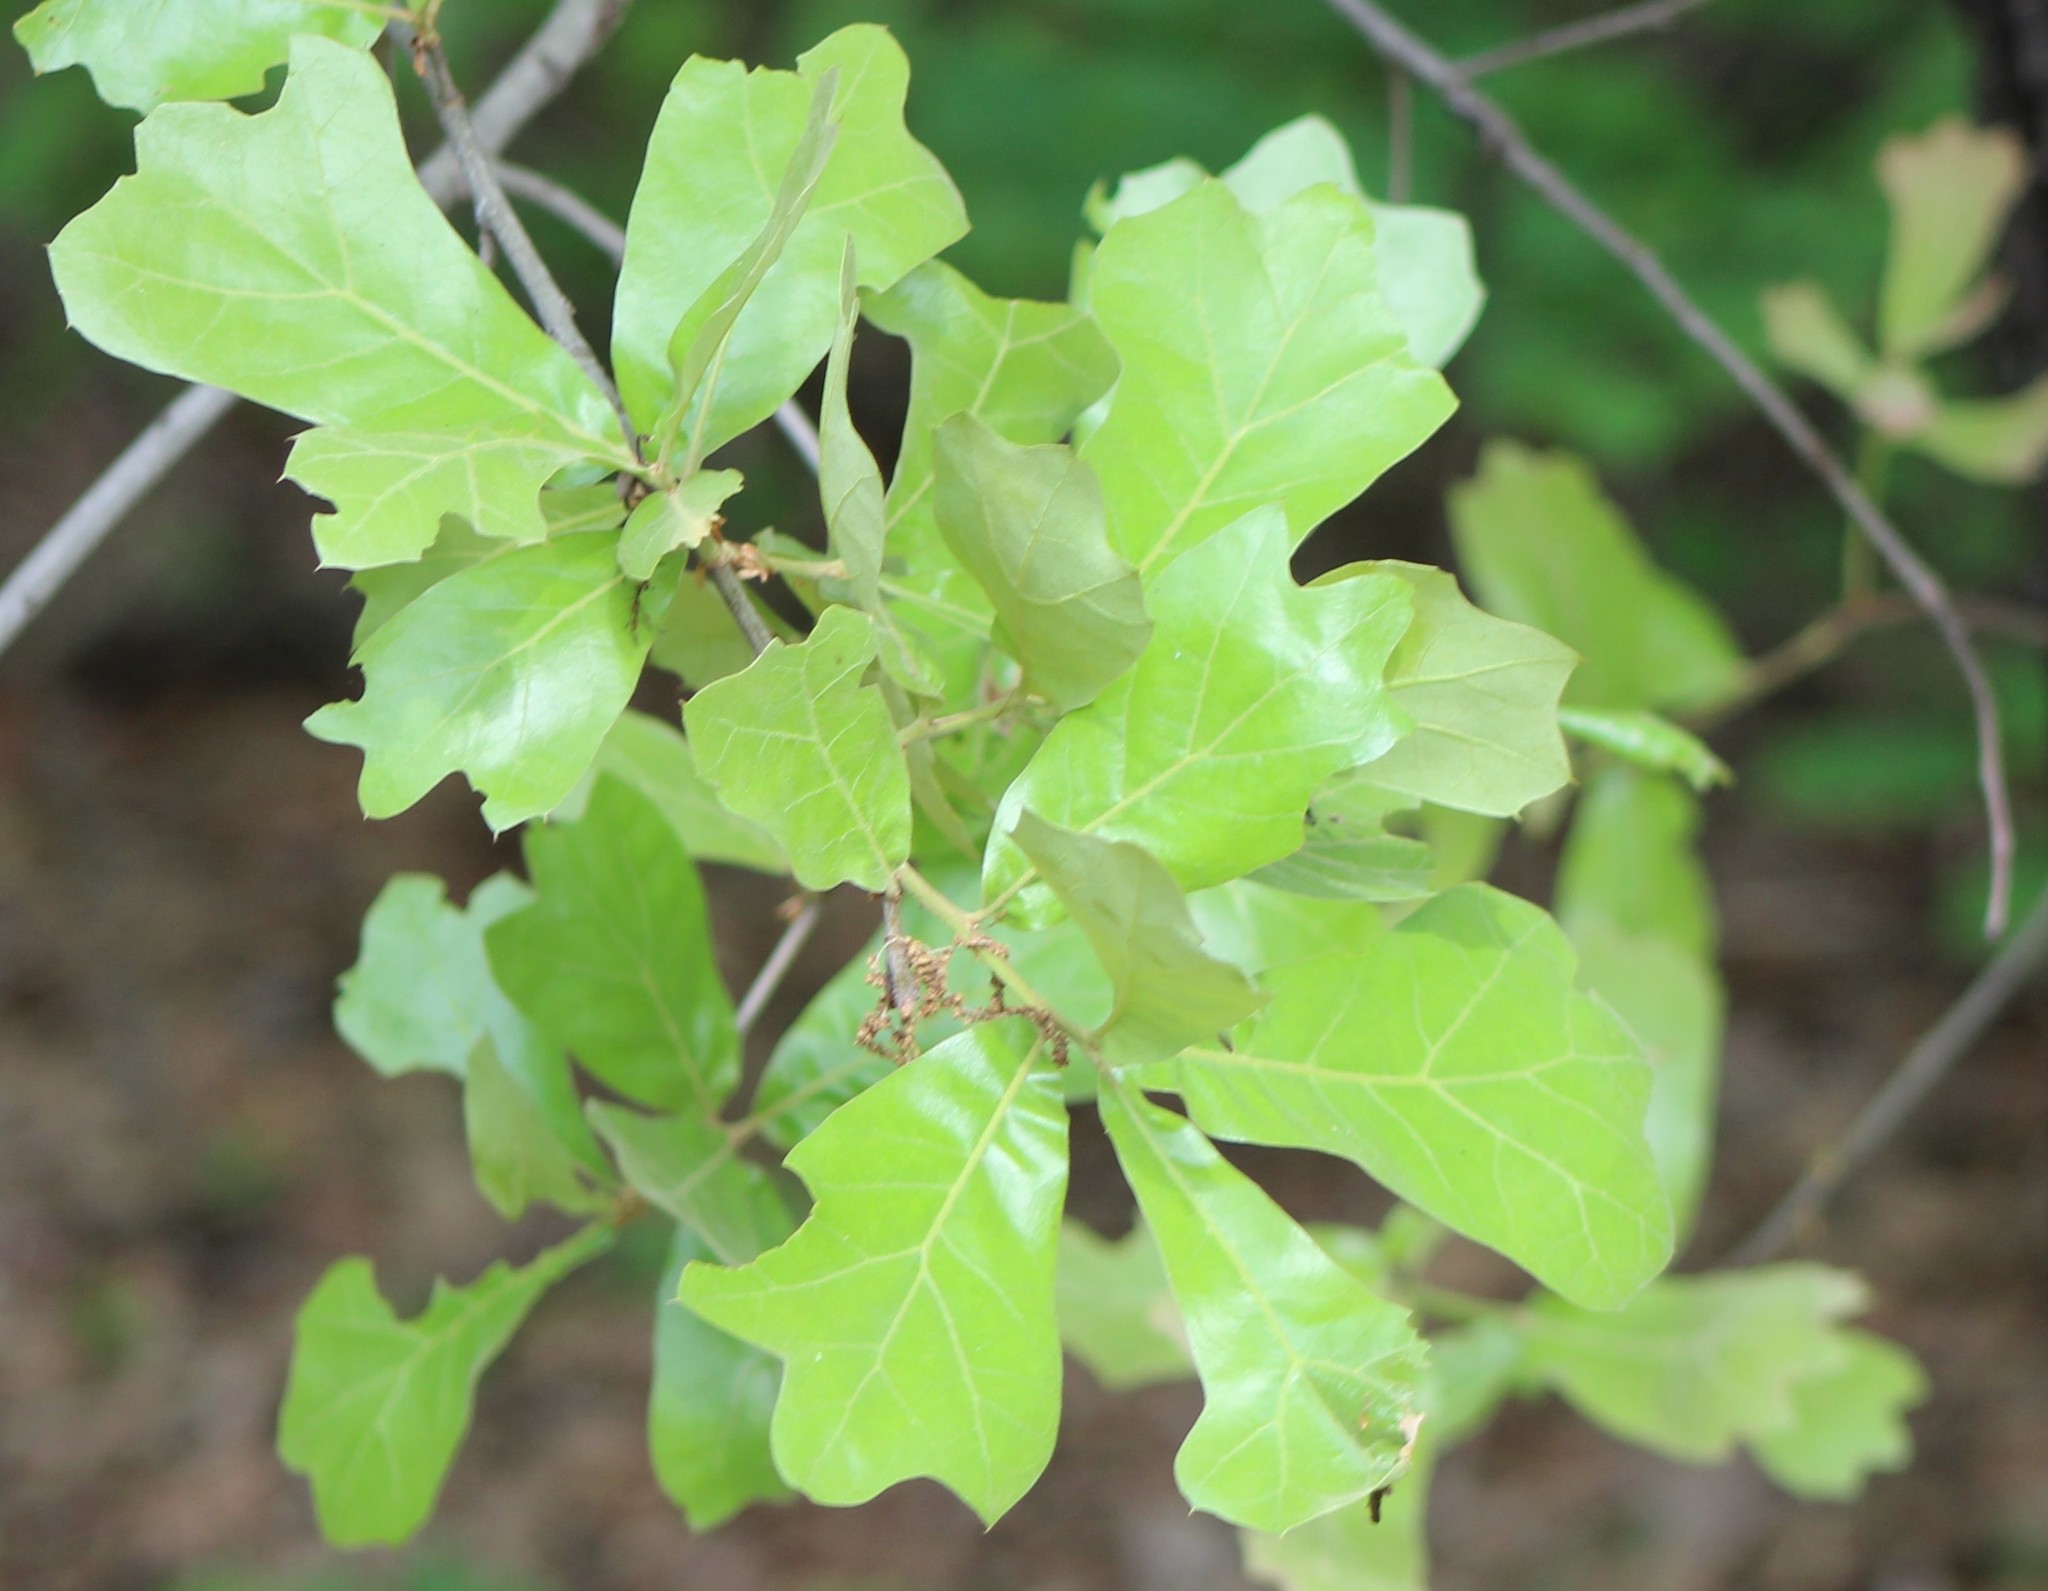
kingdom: Plantae
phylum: Tracheophyta
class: Magnoliopsida
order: Fagales
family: Fagaceae
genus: Quercus
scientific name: Quercus marilandica
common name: Blackjack oak
